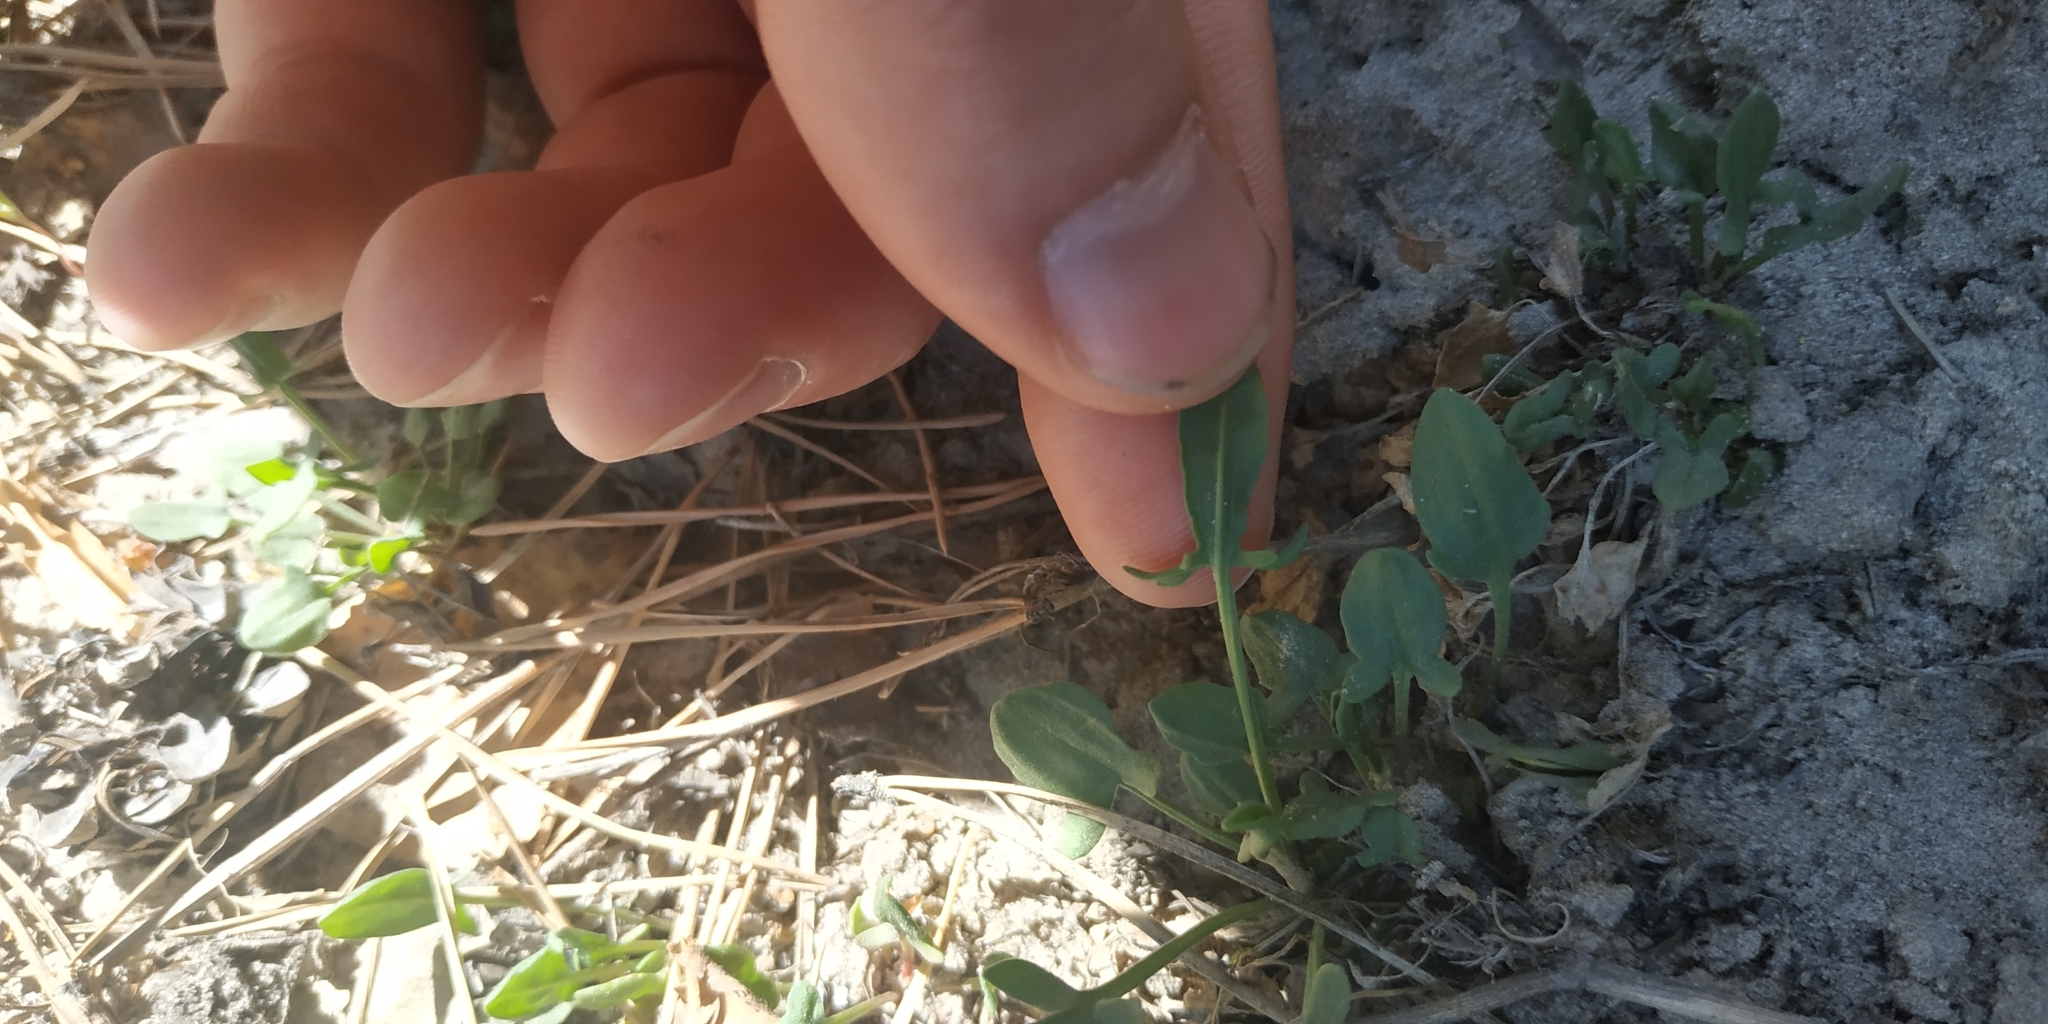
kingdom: Plantae
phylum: Tracheophyta
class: Magnoliopsida
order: Caryophyllales
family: Polygonaceae
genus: Rumex
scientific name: Rumex acetosella
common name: Common sheep sorrel
